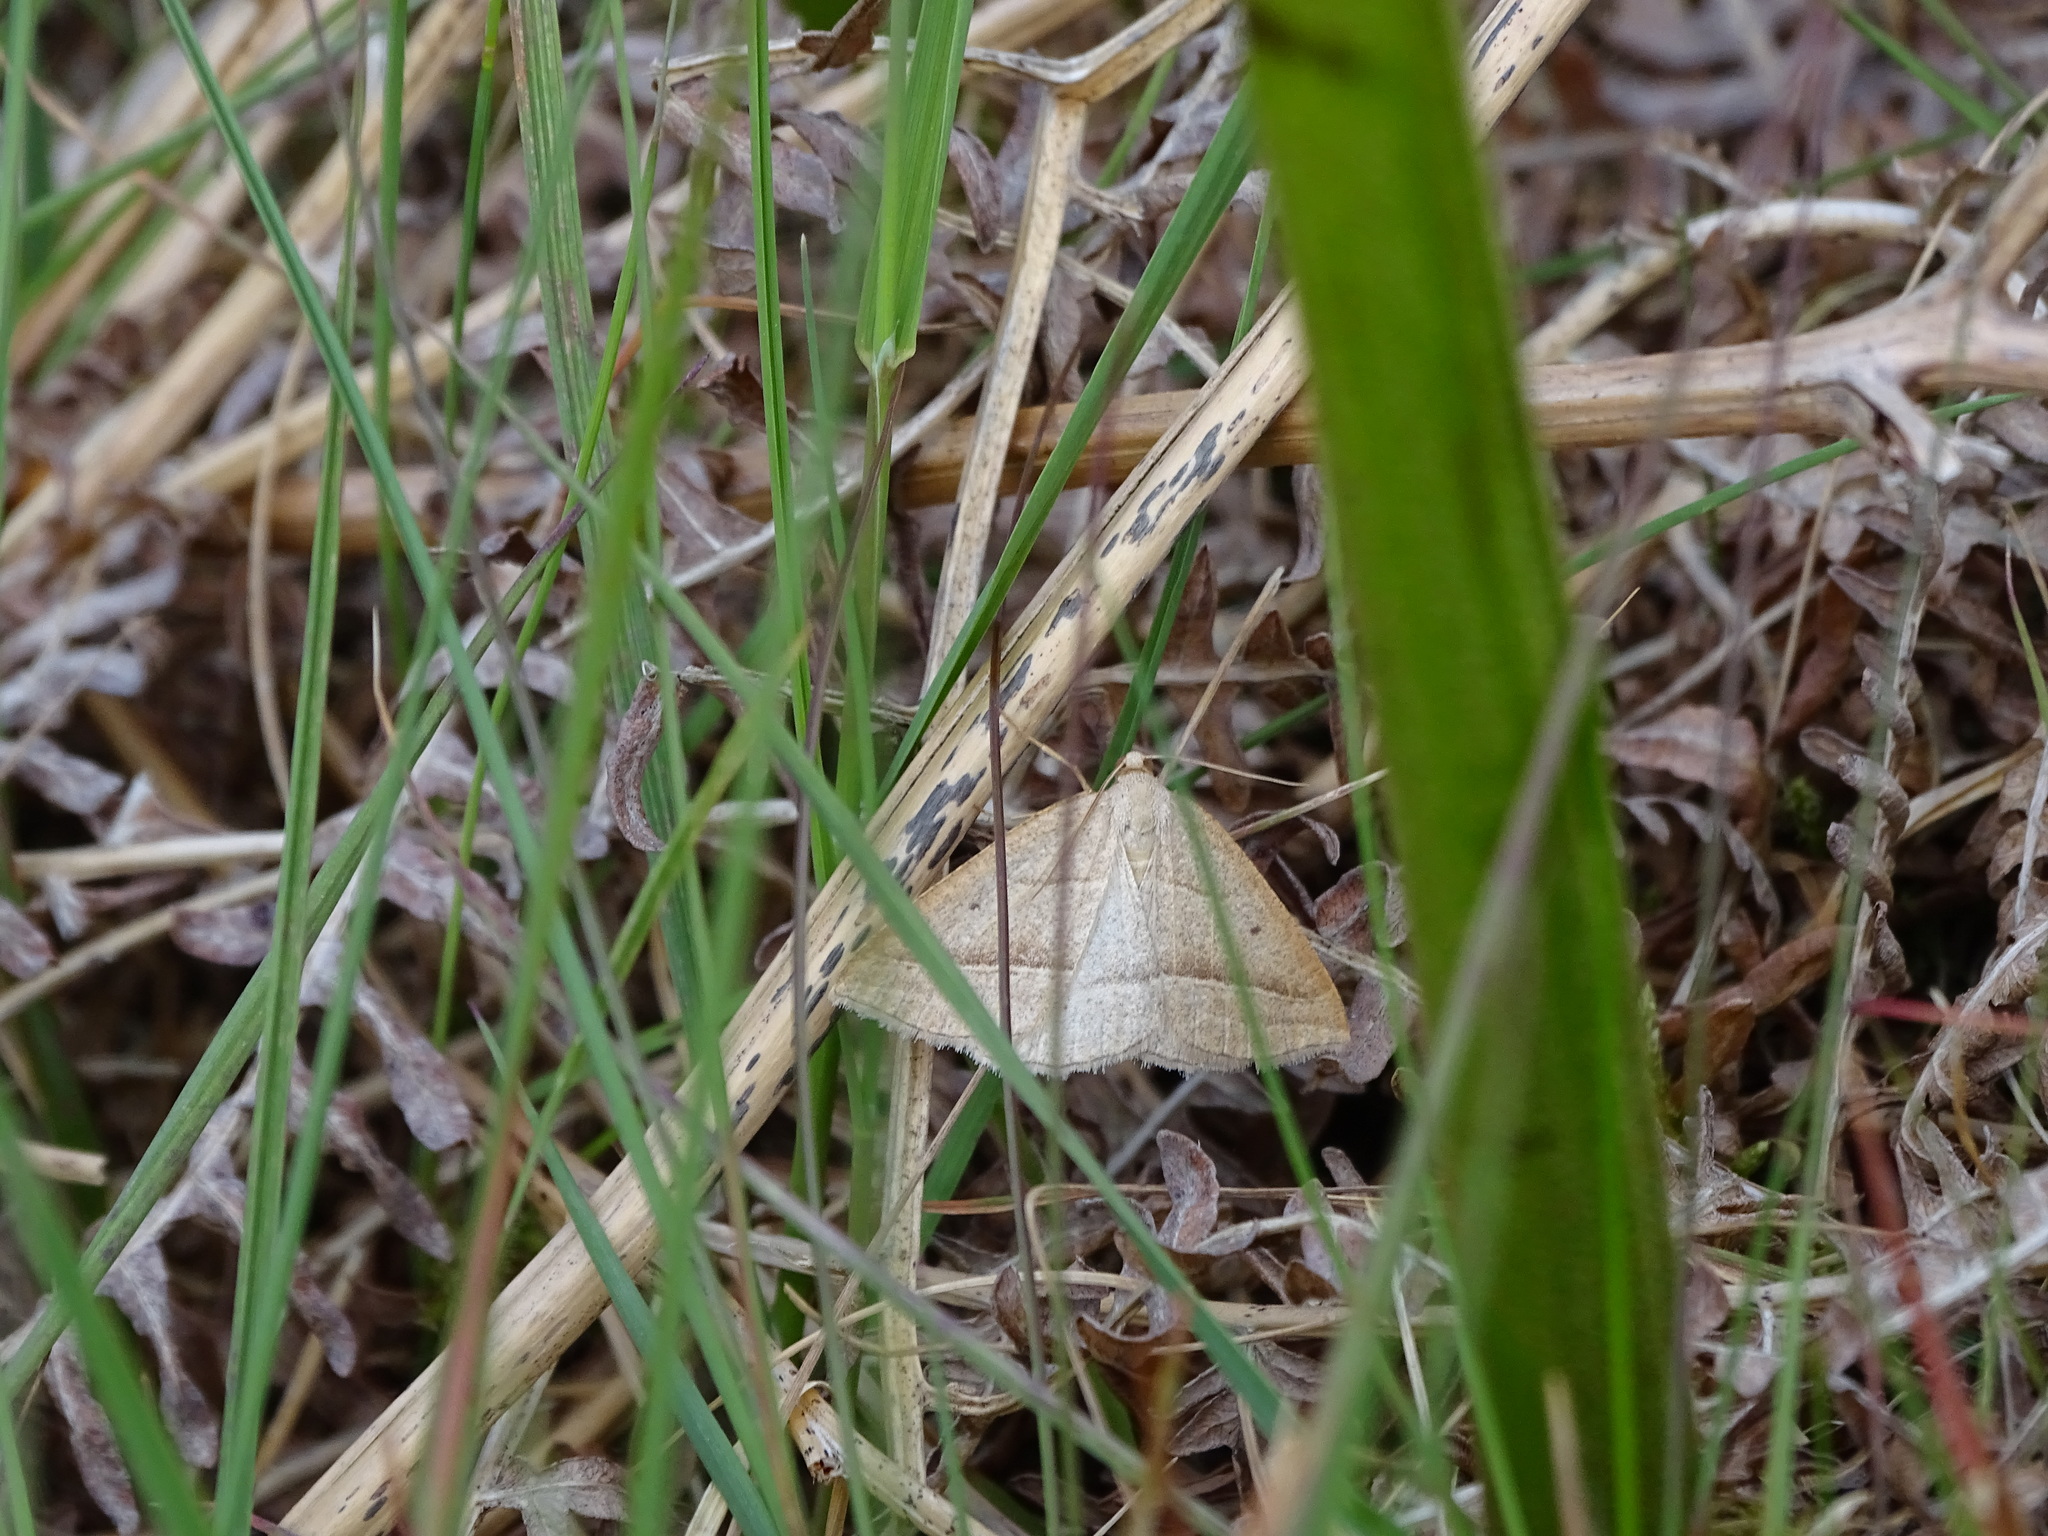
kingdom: Animalia
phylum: Arthropoda
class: Insecta
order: Lepidoptera
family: Pterophoridae
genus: Pterophorus
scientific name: Pterophorus Petrophora chlorosata
